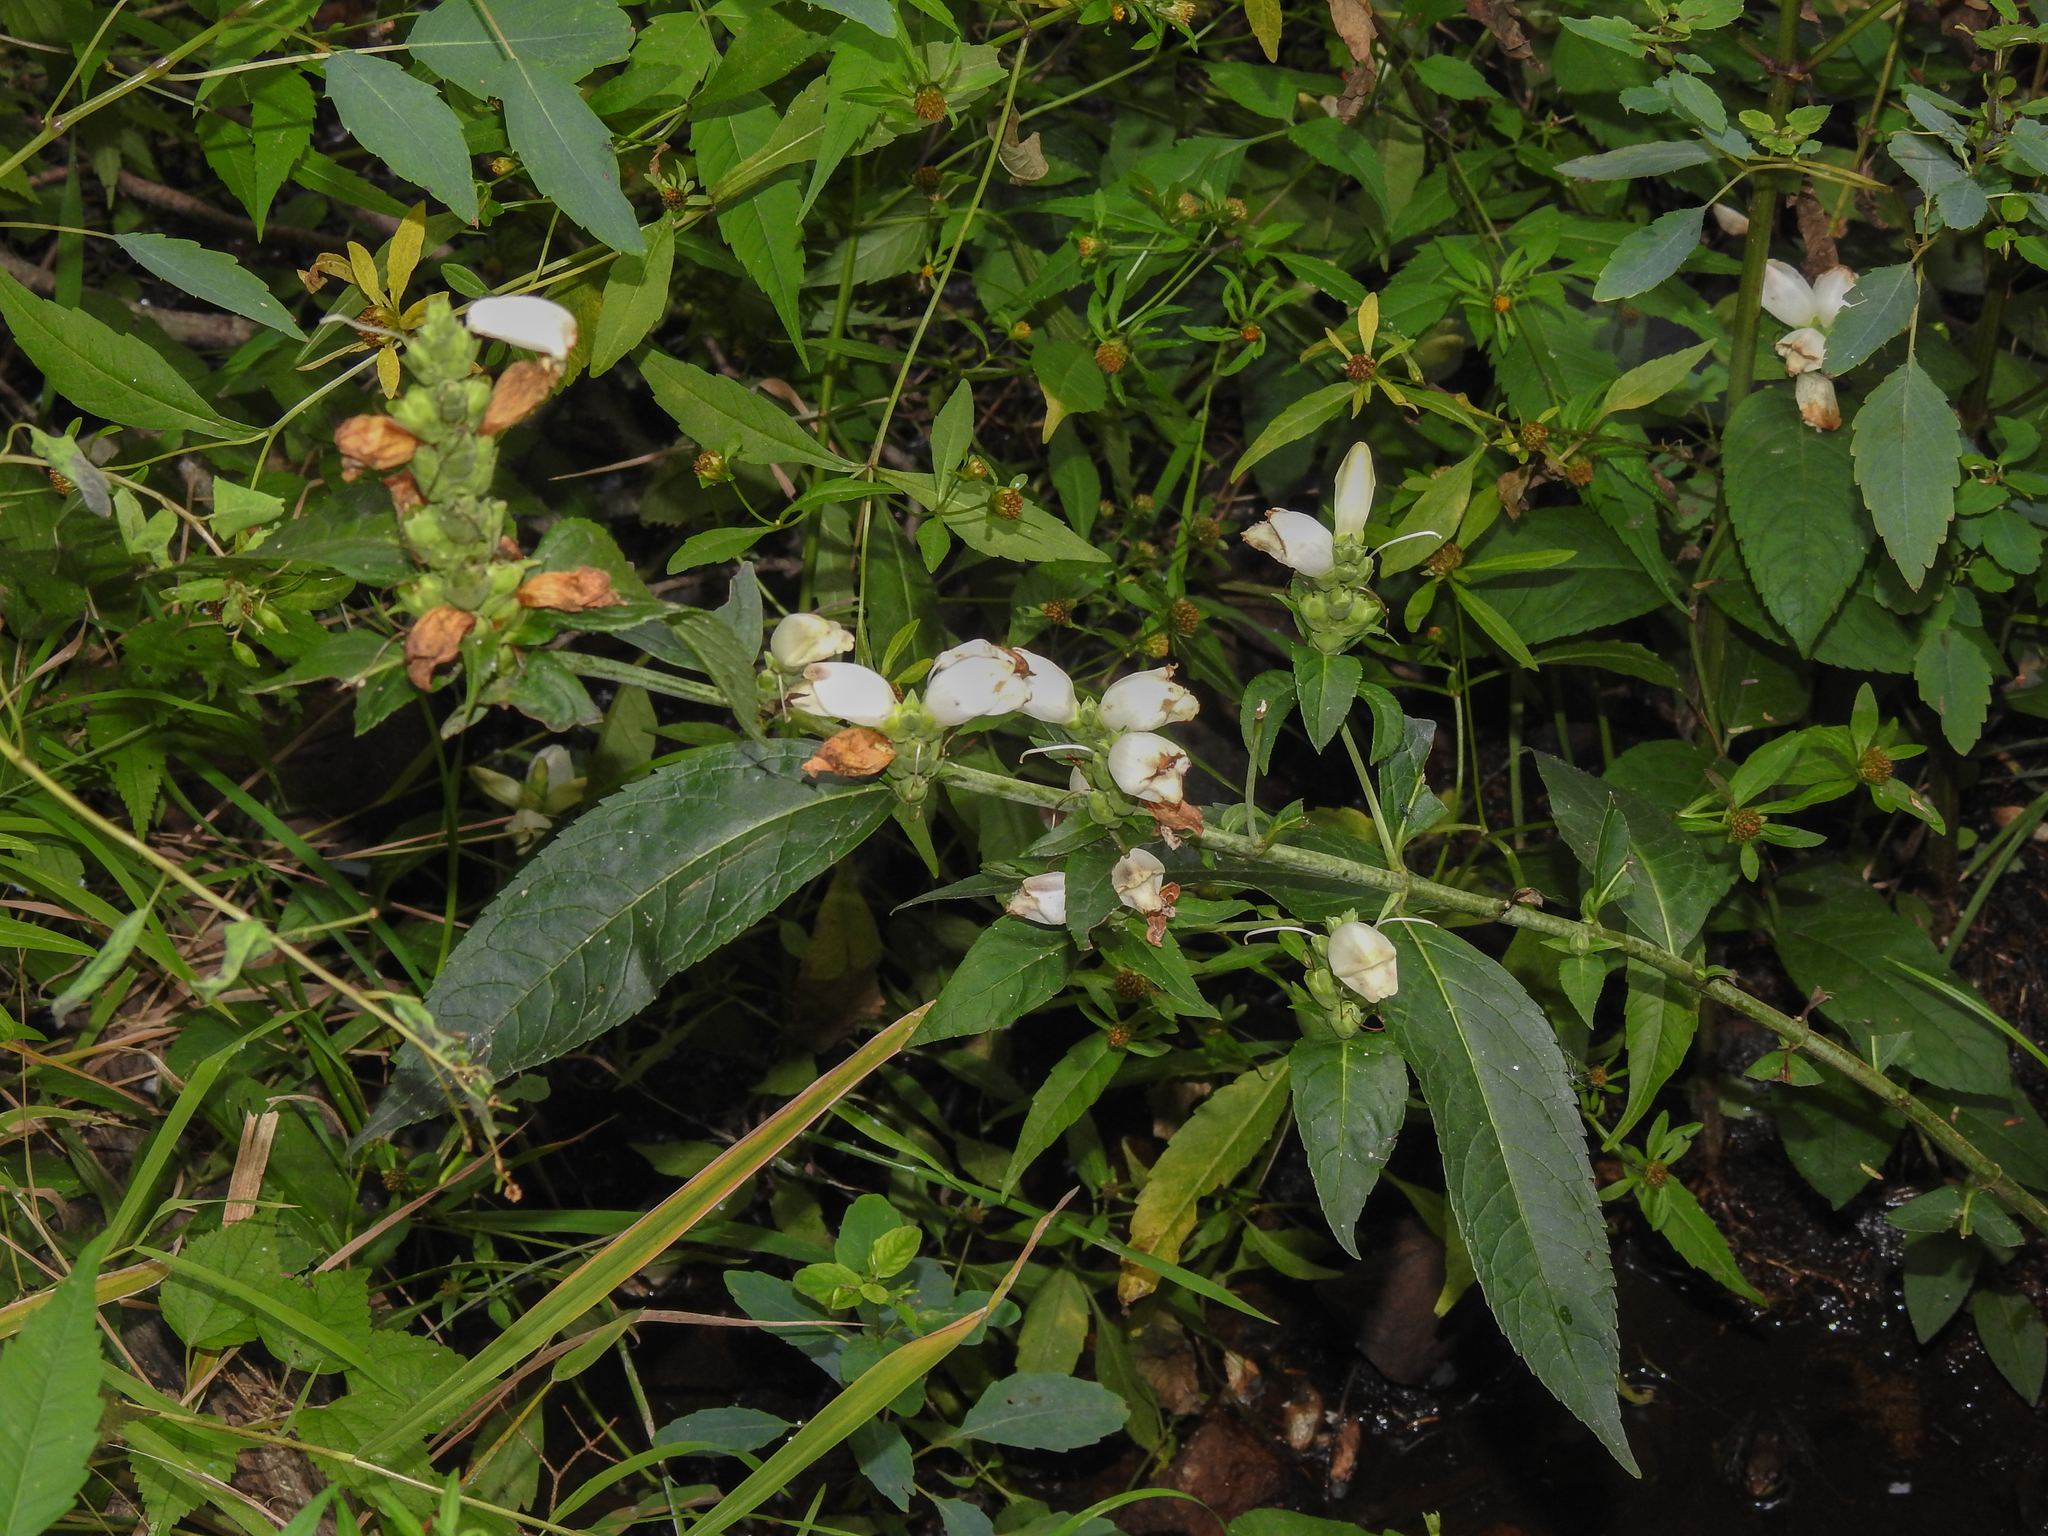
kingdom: Plantae
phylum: Tracheophyta
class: Magnoliopsida
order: Lamiales
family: Plantaginaceae
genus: Chelone
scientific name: Chelone glabra
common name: Snakehead
